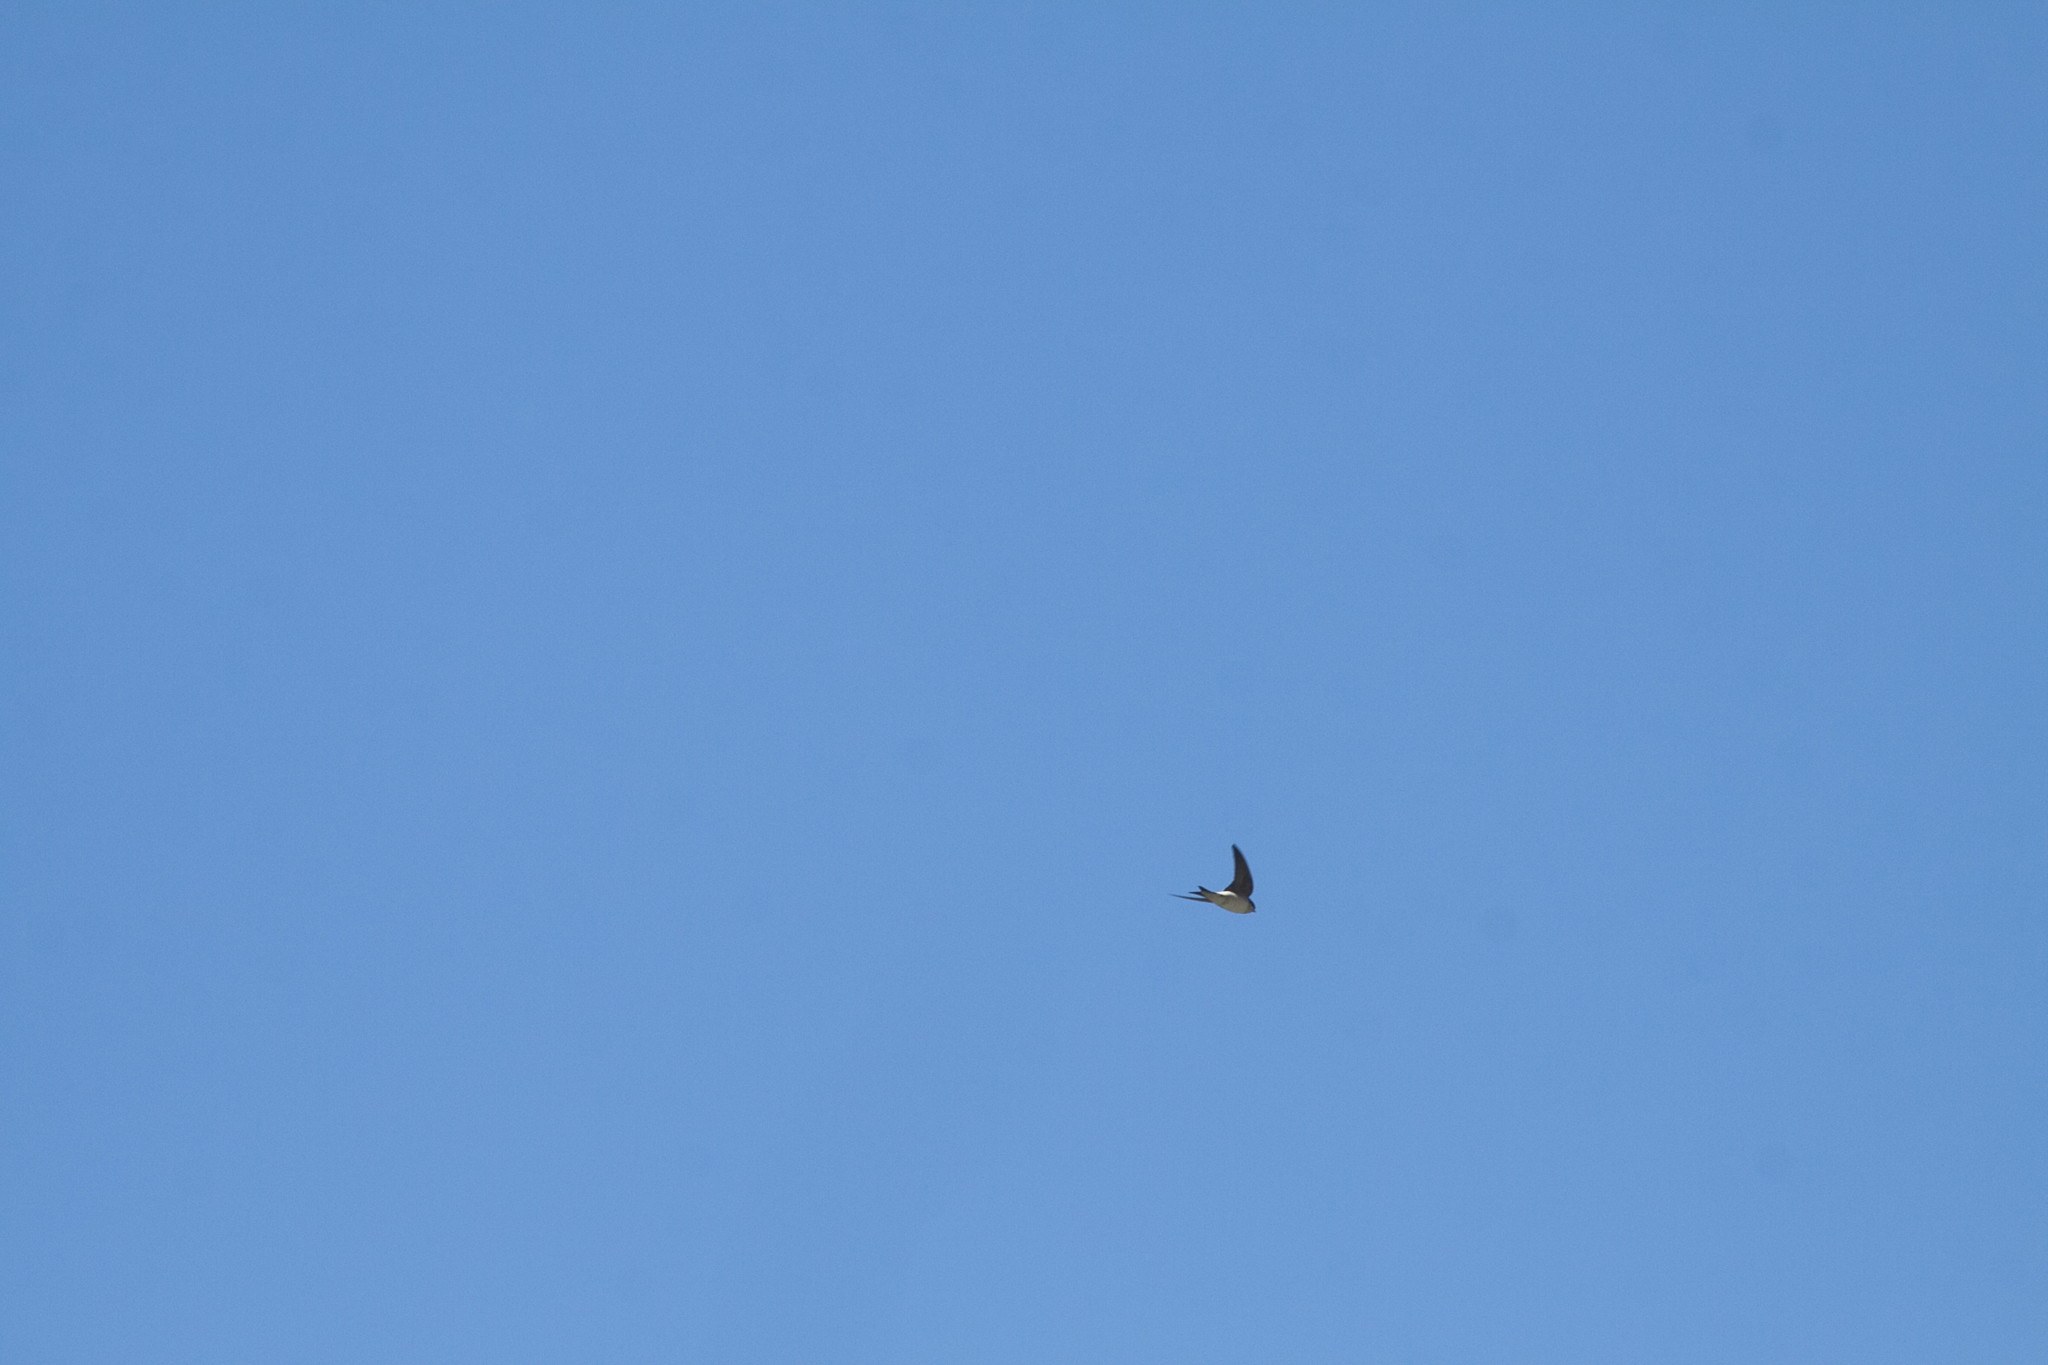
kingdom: Animalia
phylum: Chordata
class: Aves
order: Passeriformes
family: Hirundinidae
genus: Delichon
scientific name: Delichon urbicum
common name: Common house martin
